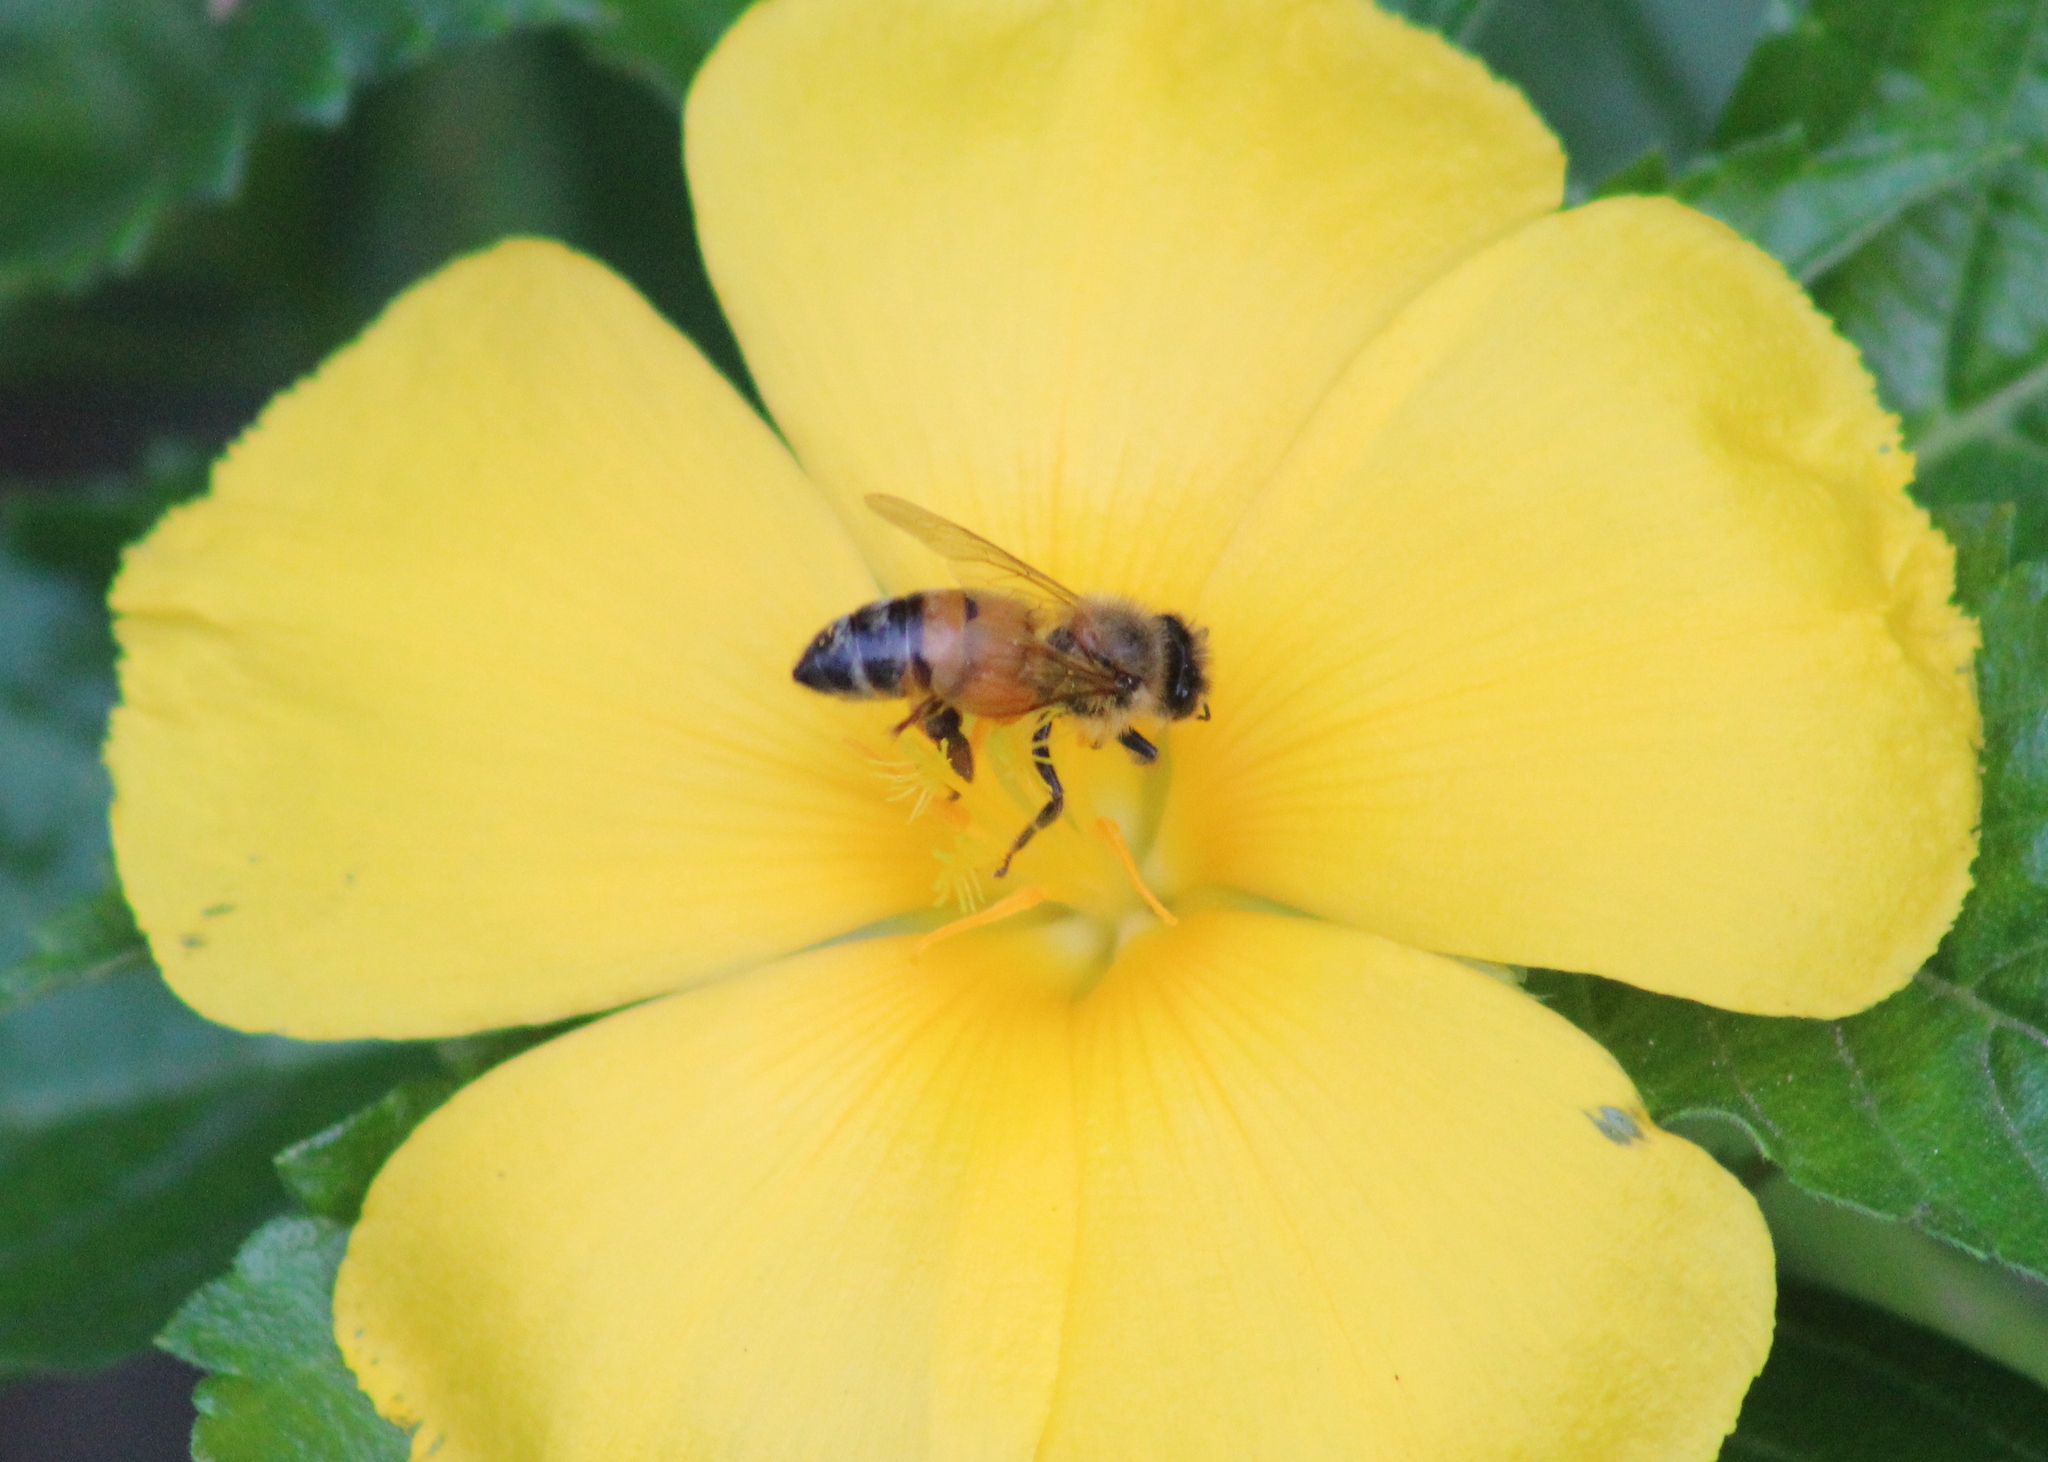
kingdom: Animalia
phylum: Arthropoda
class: Insecta
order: Hymenoptera
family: Apidae
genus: Apis
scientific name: Apis mellifera
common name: Honey bee
